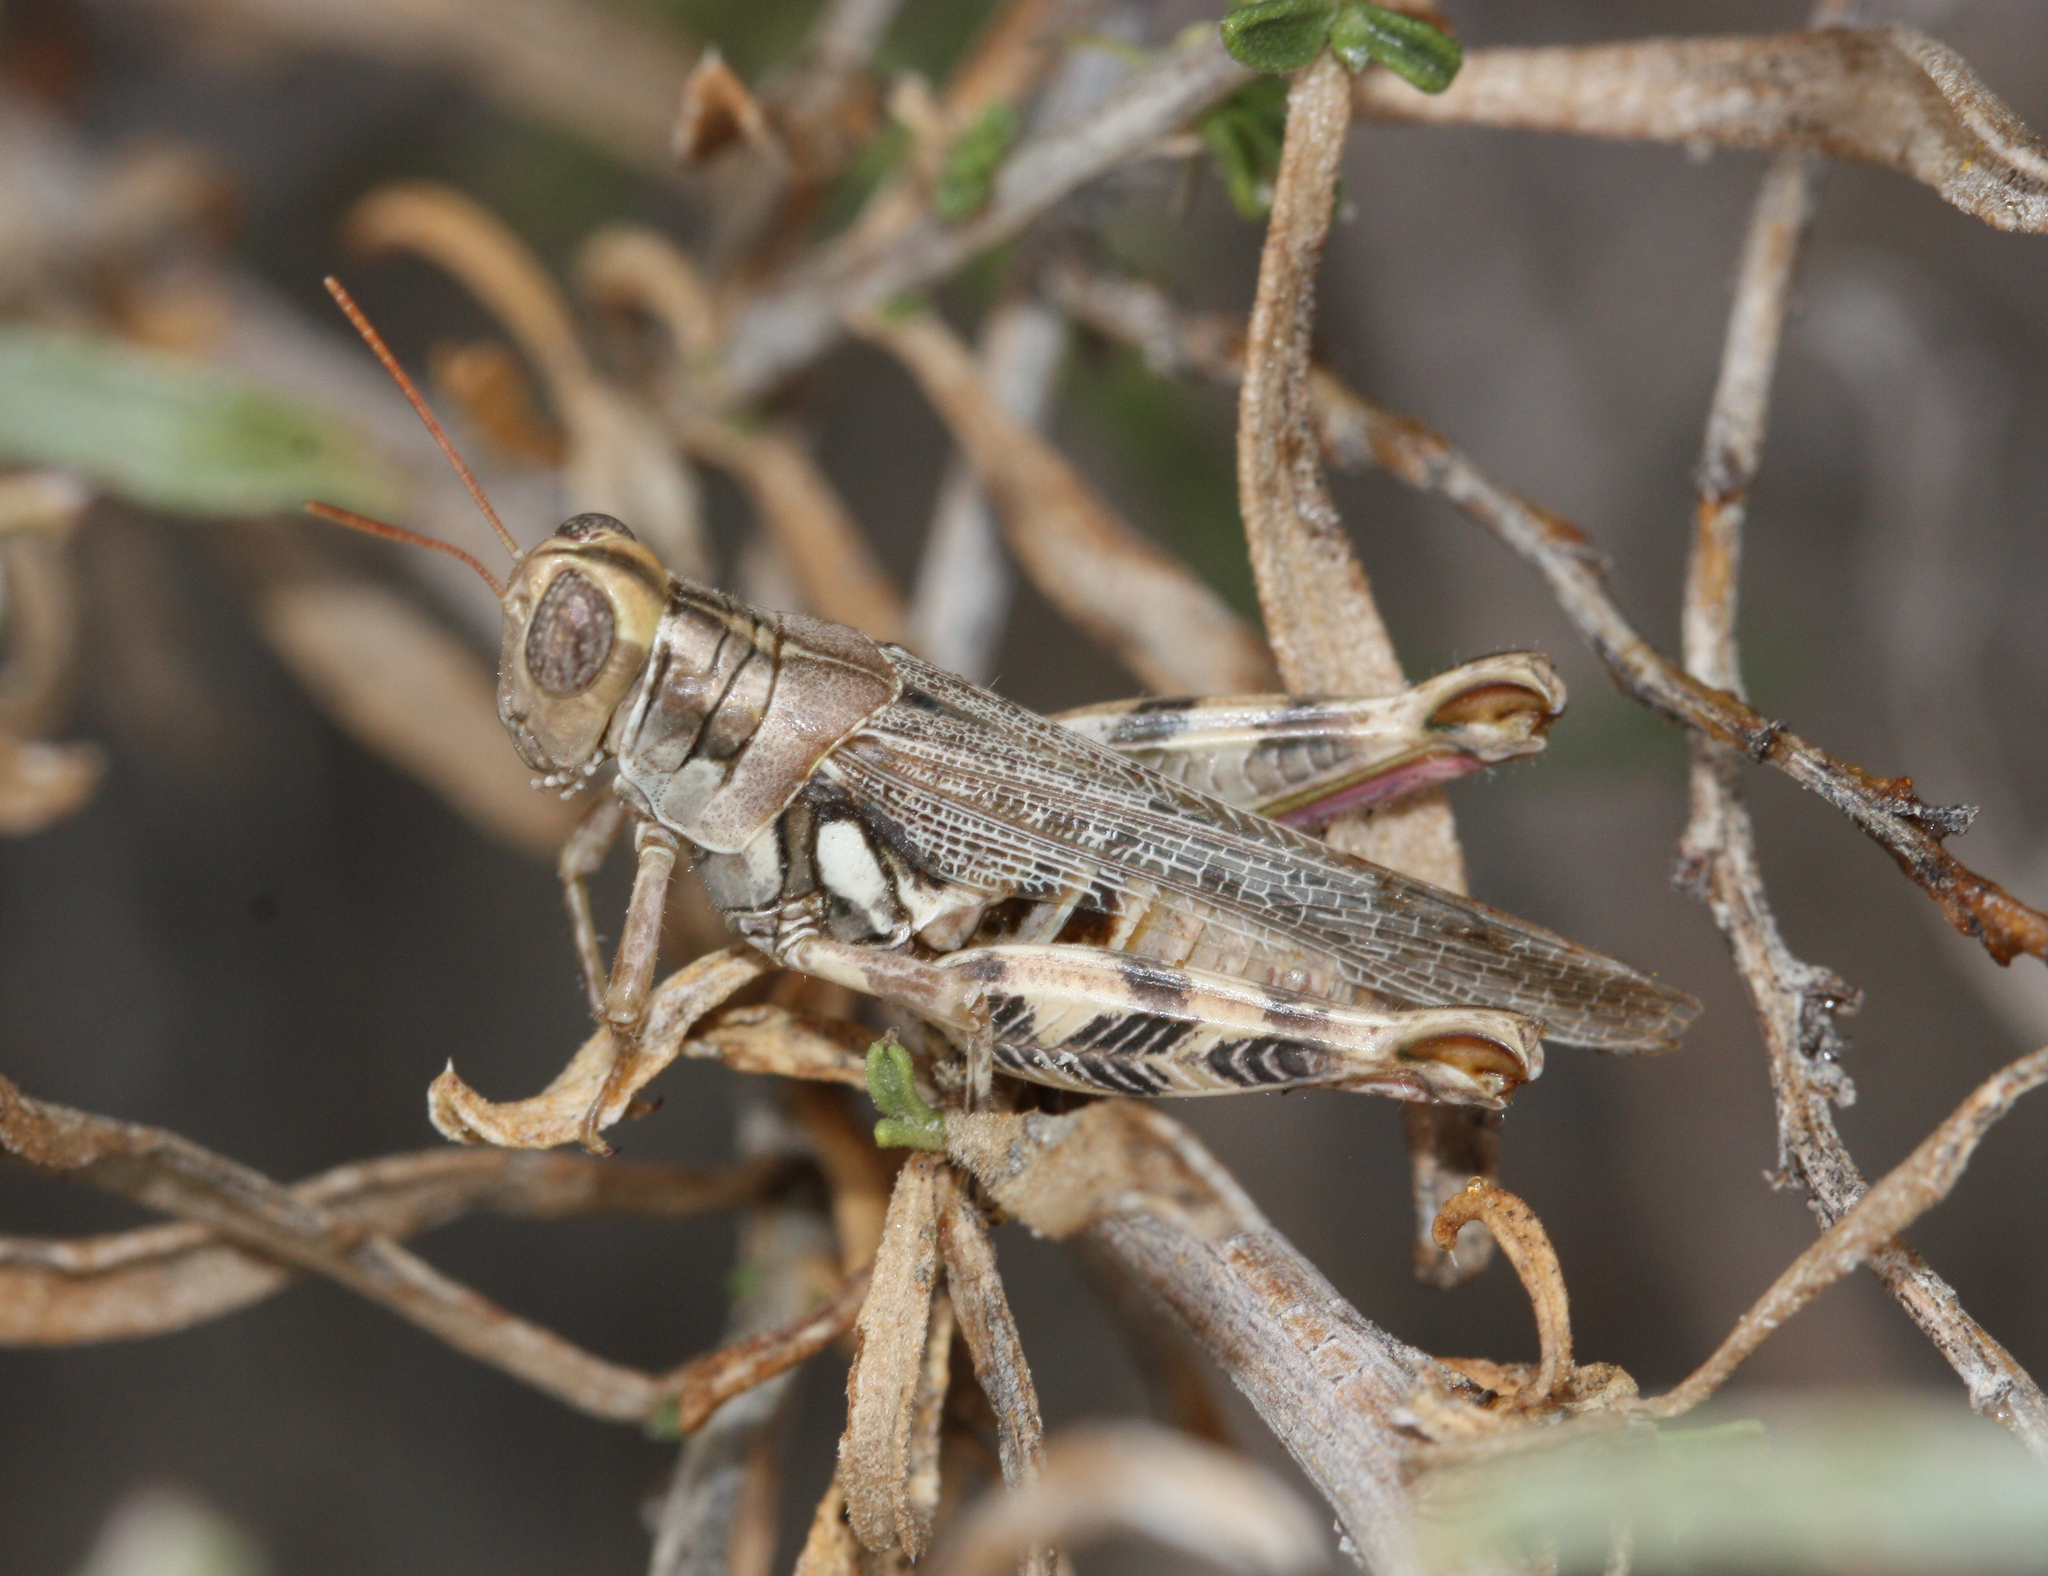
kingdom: Animalia
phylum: Arthropoda
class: Insecta
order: Orthoptera
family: Acrididae
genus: Aeoloplides
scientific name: Aeoloplides tenuipennis
